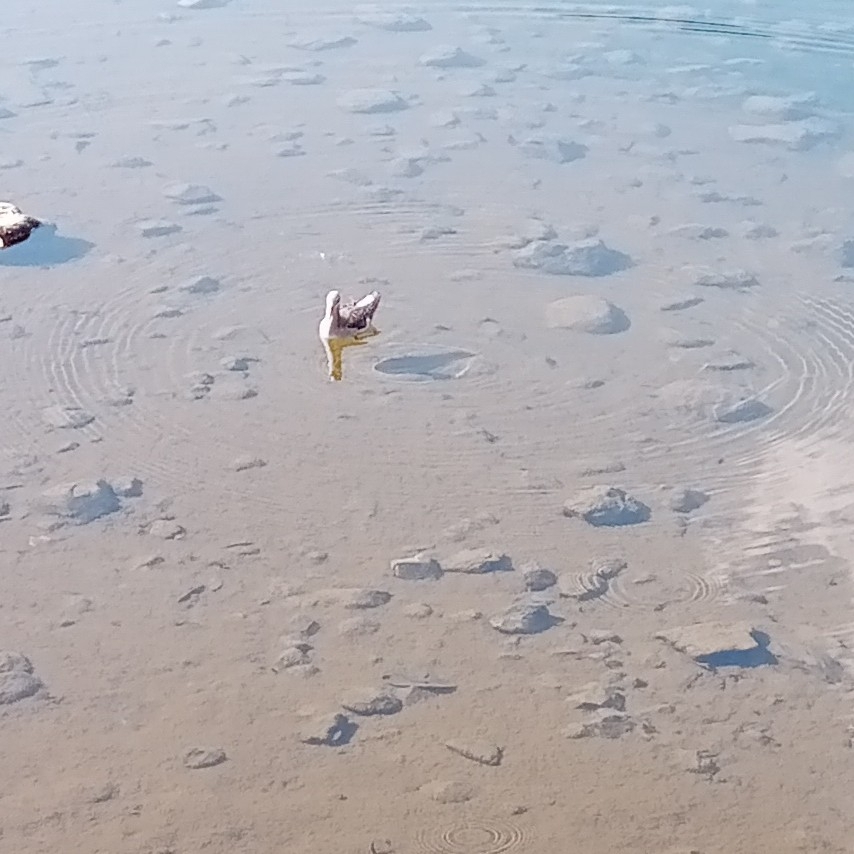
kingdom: Animalia
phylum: Chordata
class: Aves
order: Charadriiformes
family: Scolopacidae
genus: Phalaropus
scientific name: Phalaropus tricolor
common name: Wilson's phalarope
